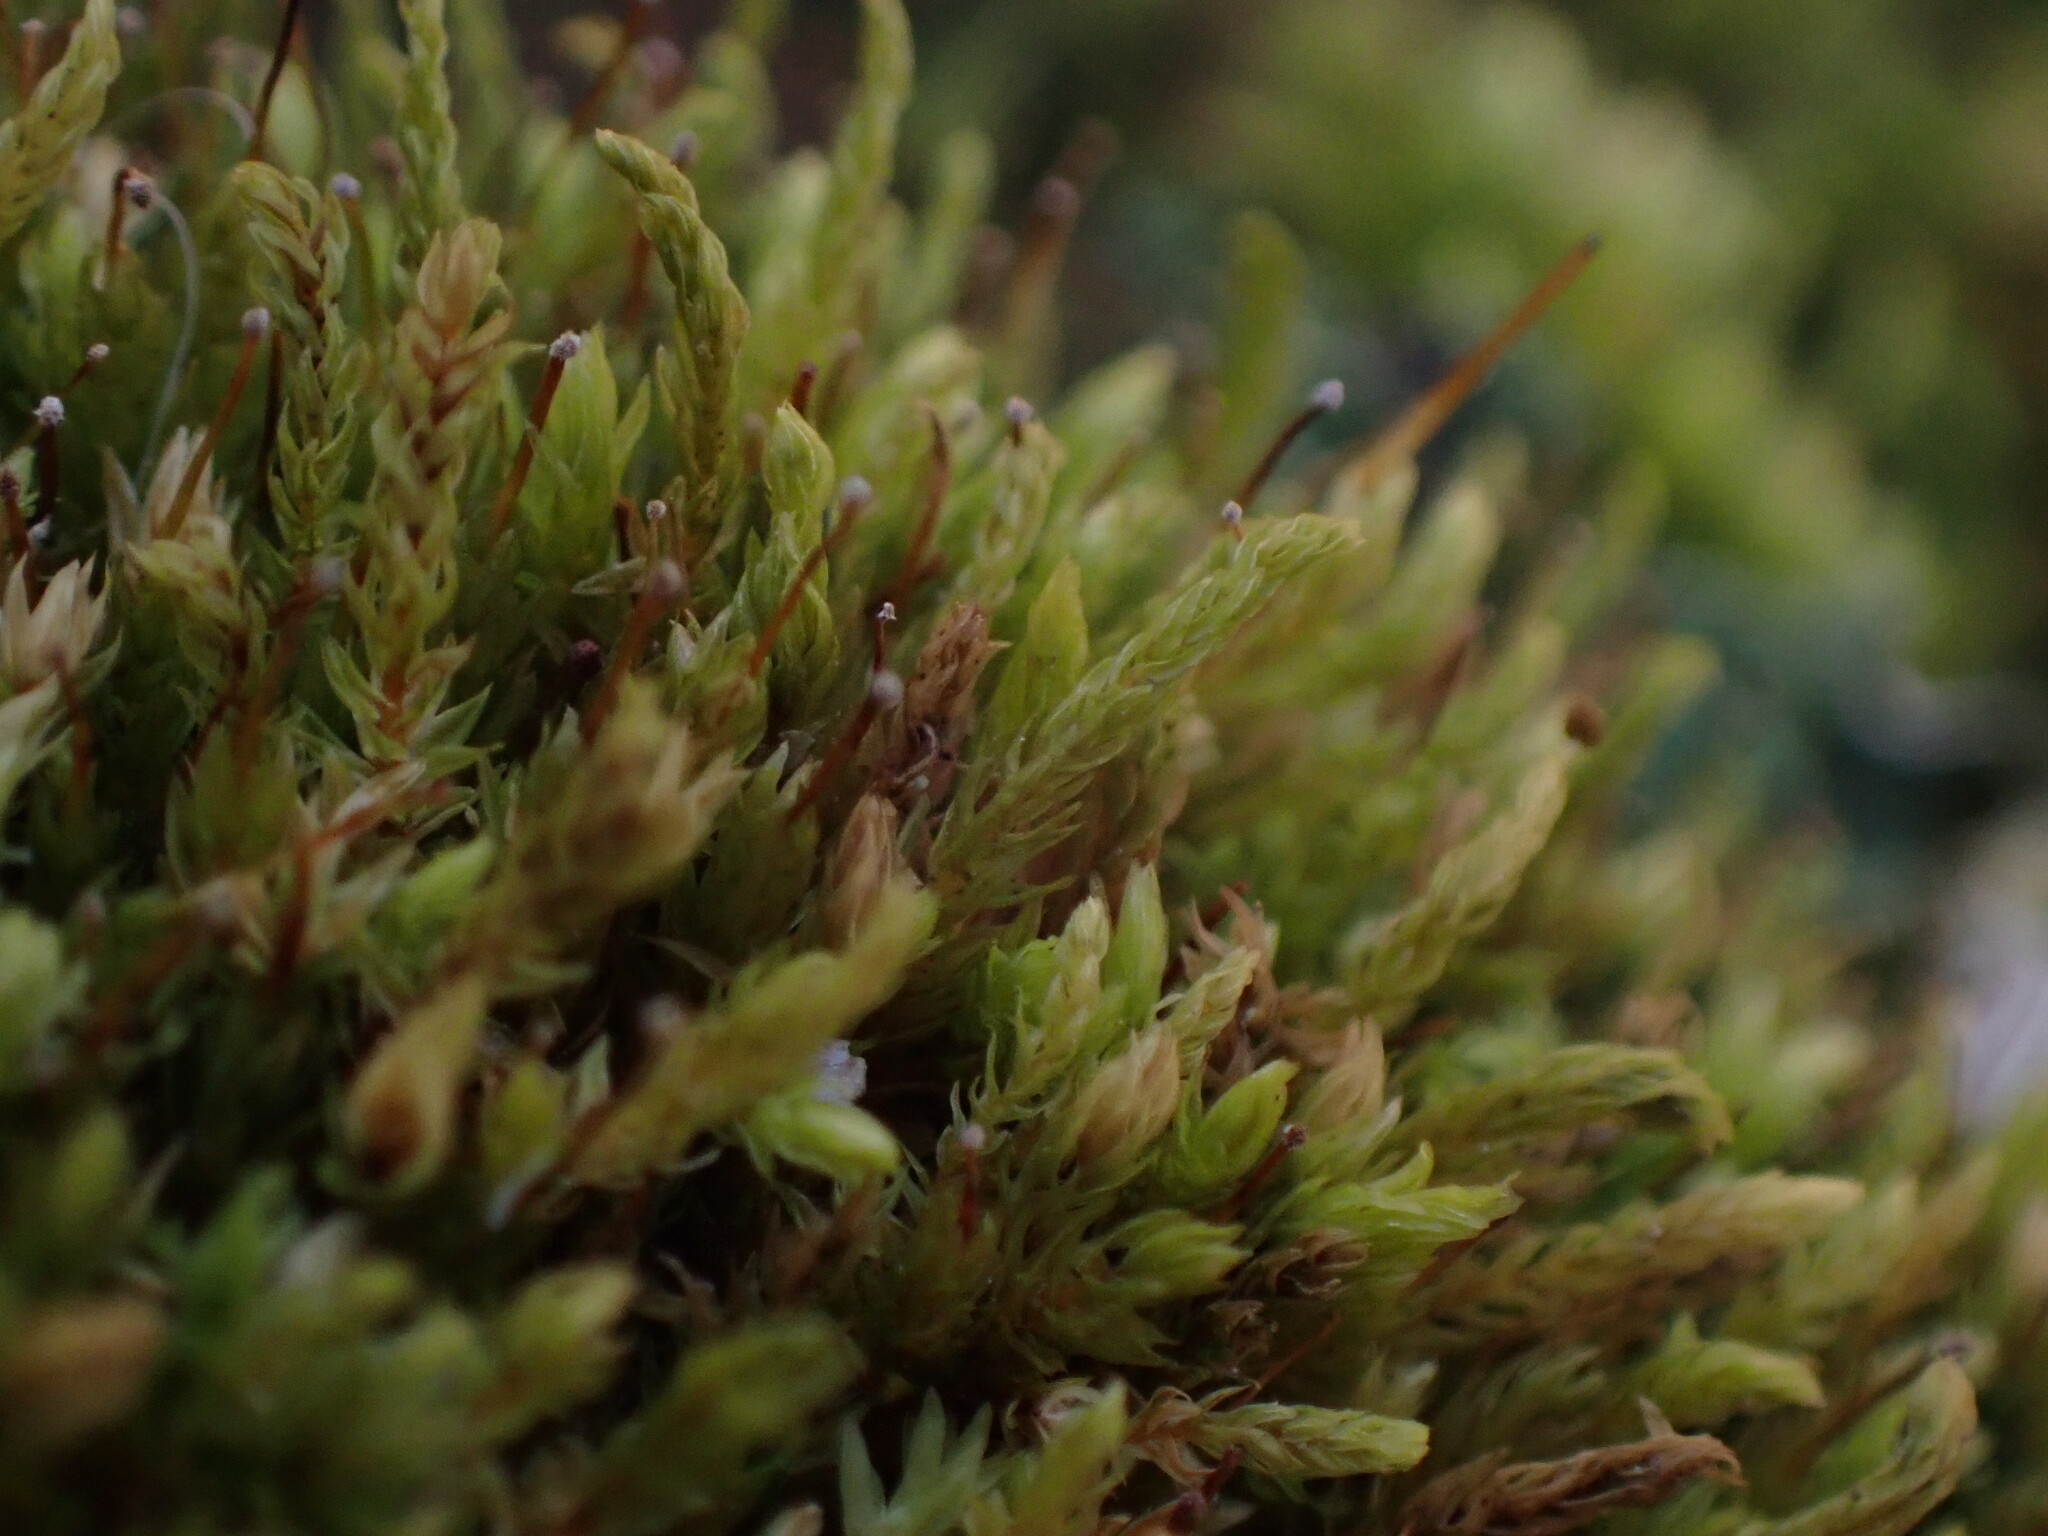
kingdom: Plantae
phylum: Bryophyta
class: Bryopsida
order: Aulacomniales
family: Aulacomniaceae
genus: Aulacomnium
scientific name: Aulacomnium androgynum
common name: Little groove moss
